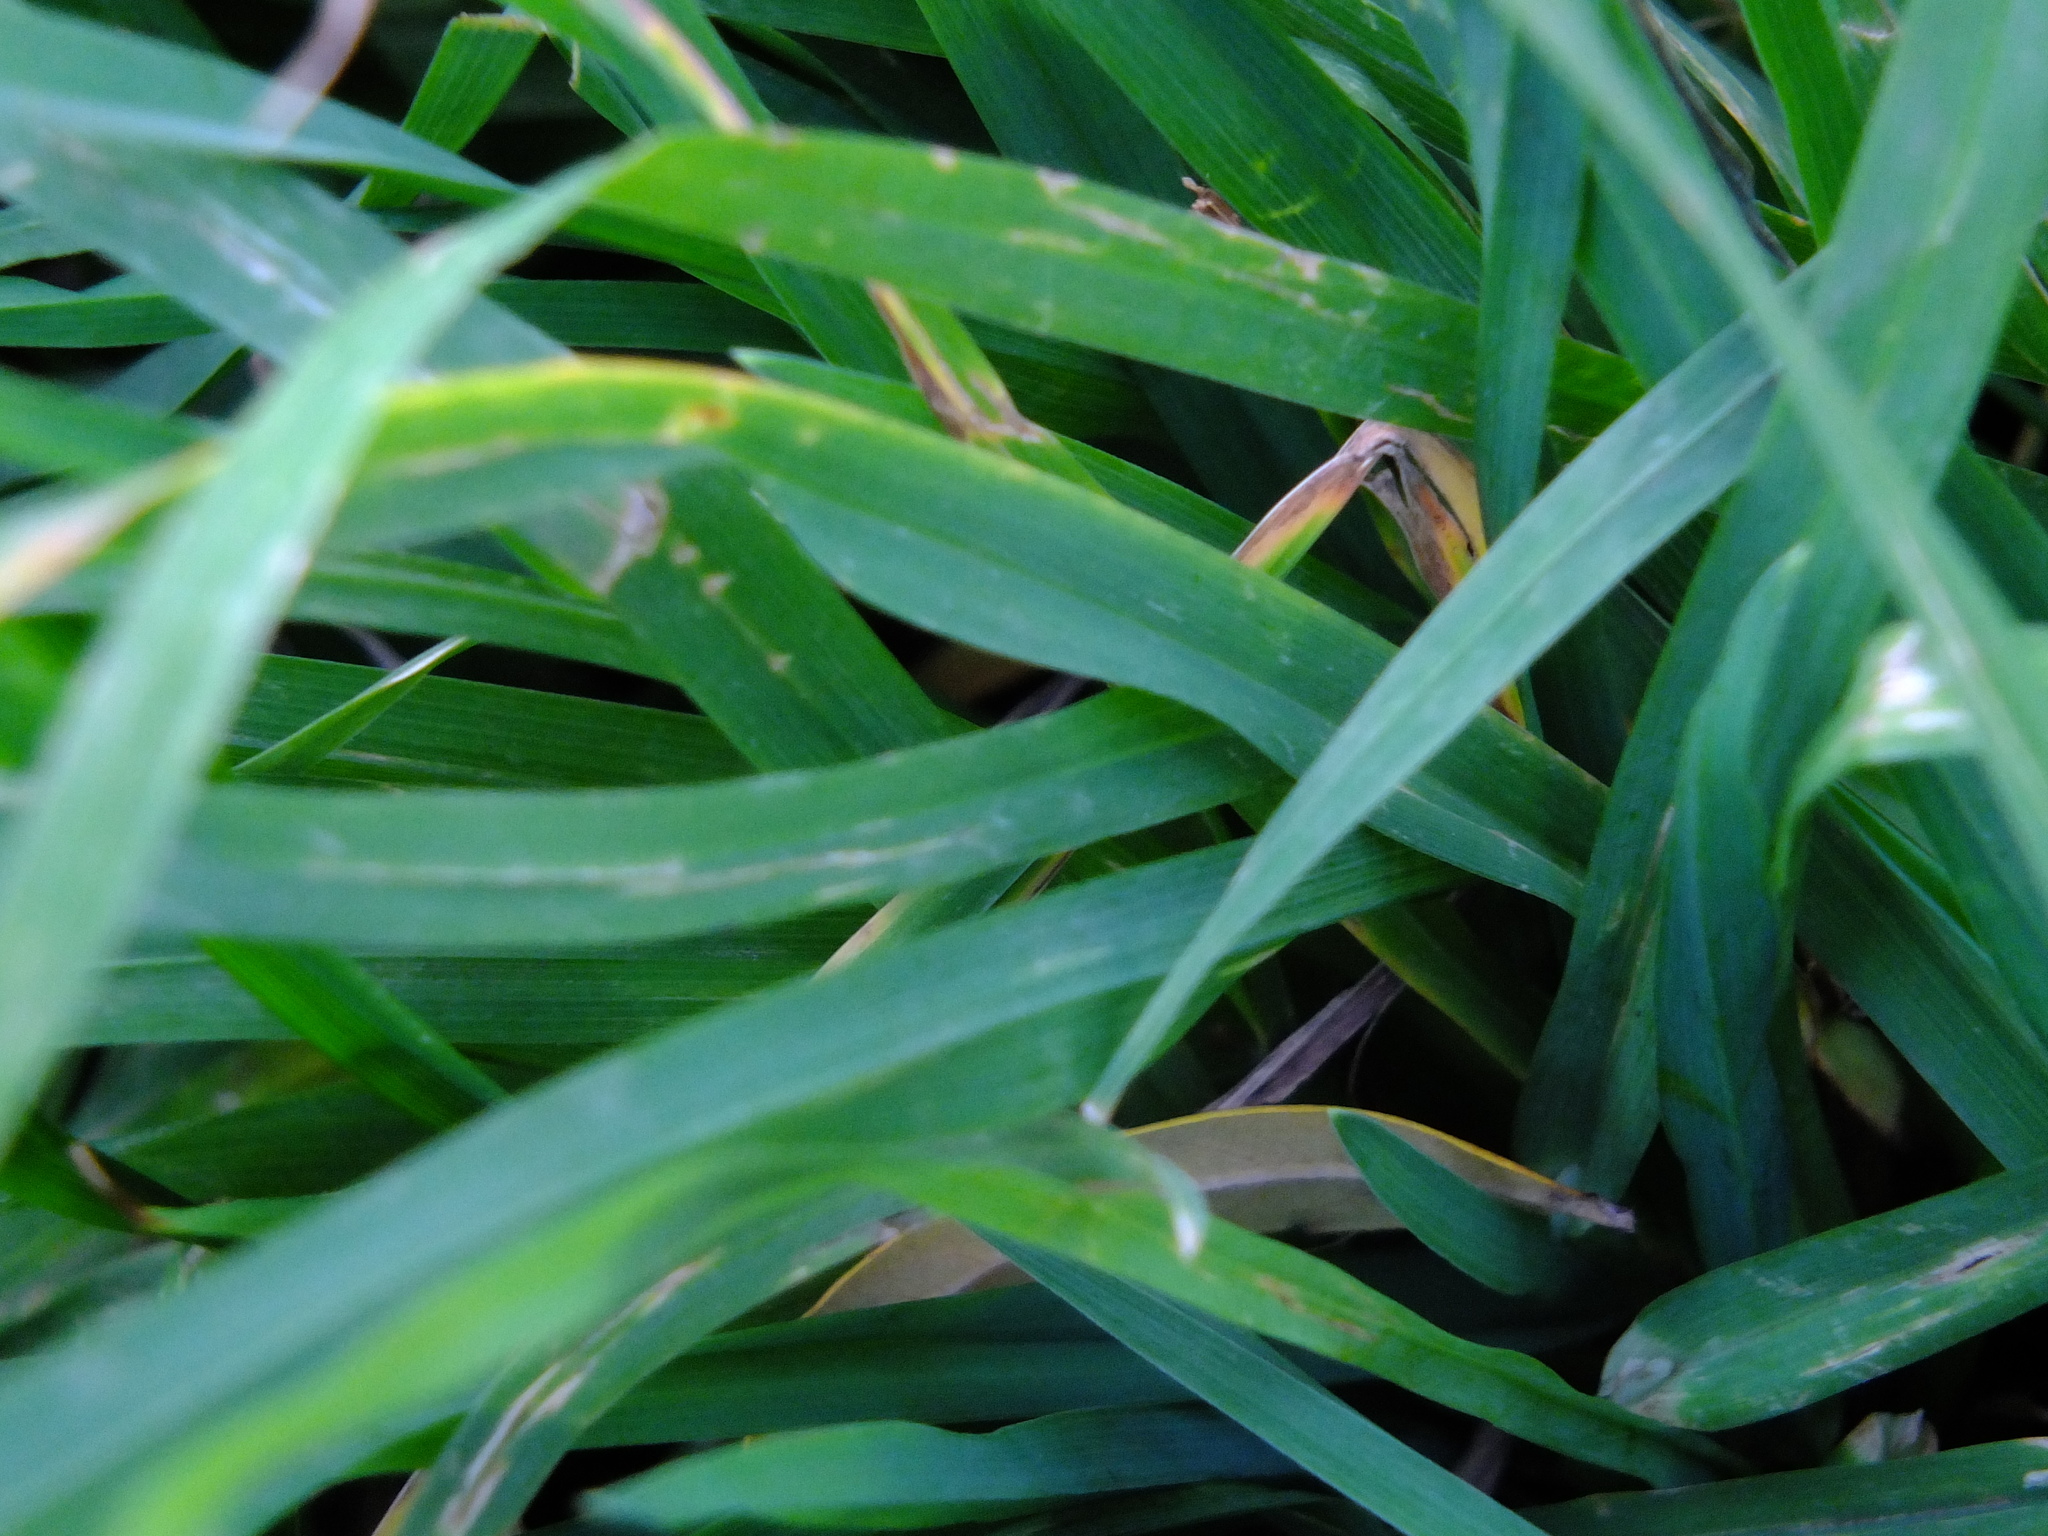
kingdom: Plantae
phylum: Tracheophyta
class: Liliopsida
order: Poales
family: Poaceae
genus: Dactylis
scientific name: Dactylis glomerata
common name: Orchardgrass
